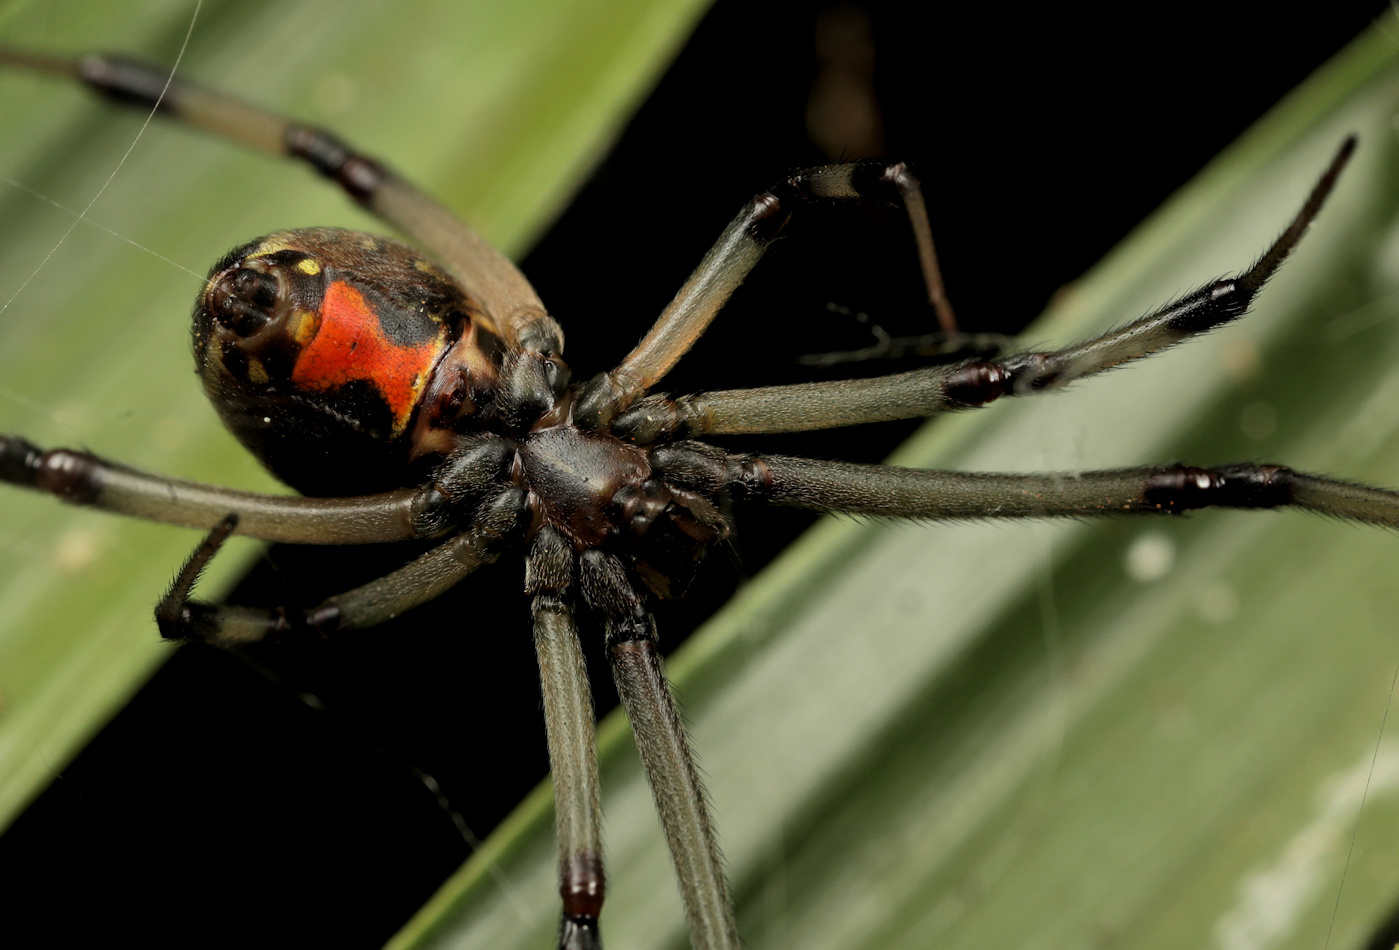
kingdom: Animalia
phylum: Arthropoda
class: Arachnida
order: Araneae
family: Theridiidae
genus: Latrodectus
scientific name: Latrodectus geometricus
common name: Brown widow spider
